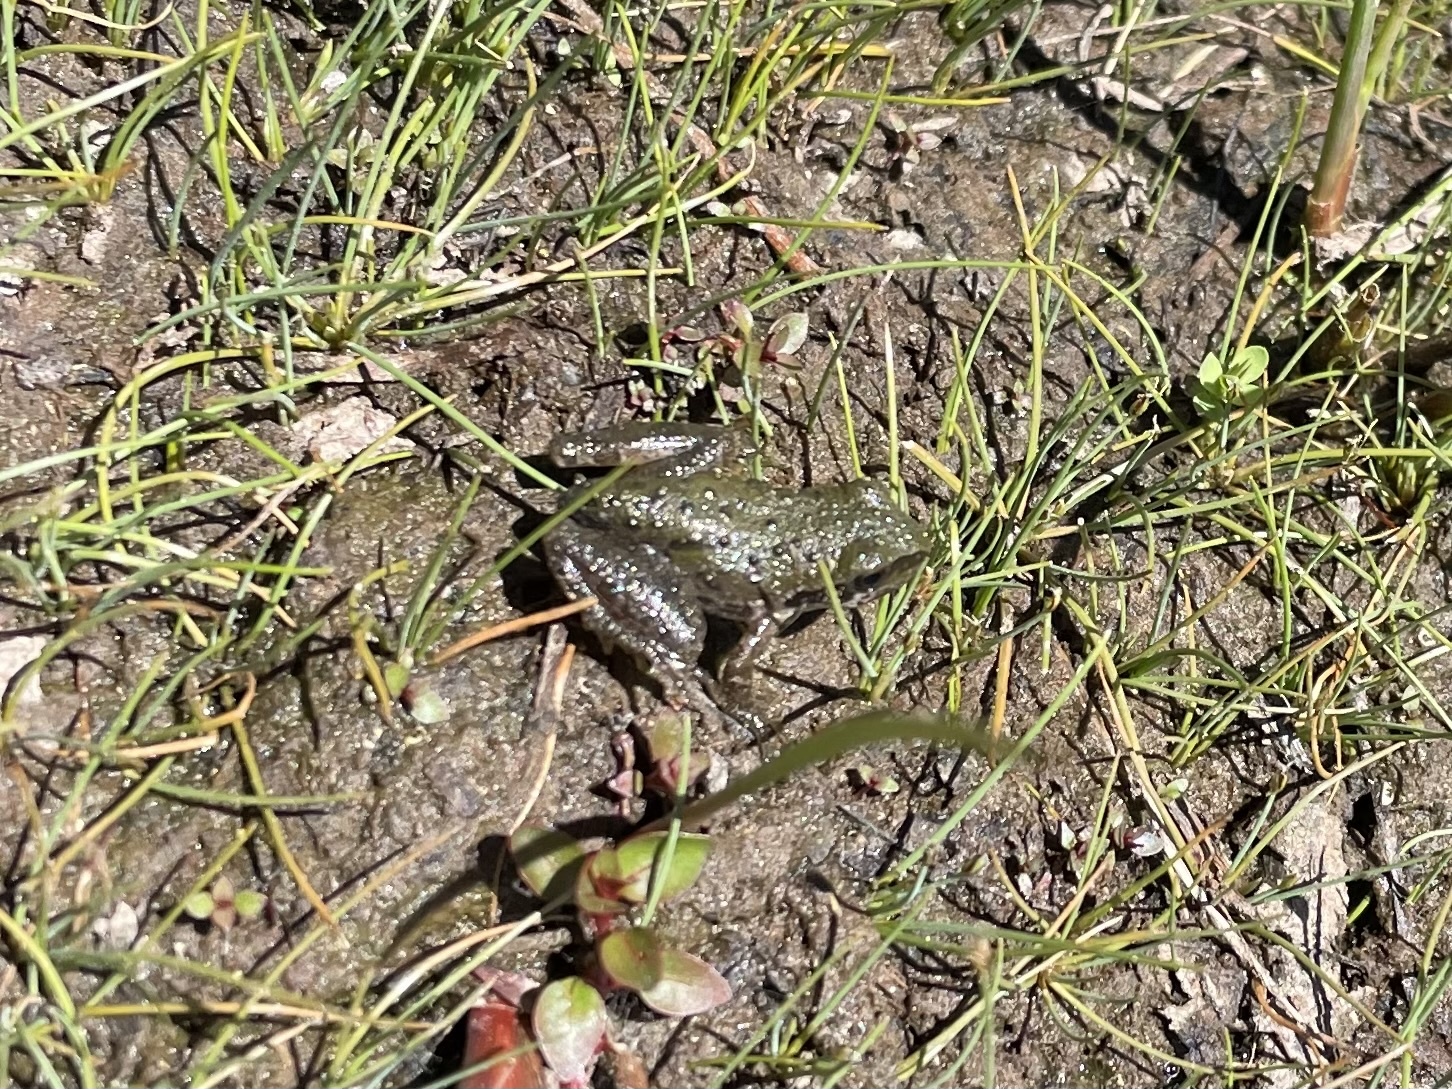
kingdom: Animalia
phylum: Chordata
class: Amphibia
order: Anura
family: Hylidae
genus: Pseudacris
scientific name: Pseudacris regilla
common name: Pacific chorus frog
